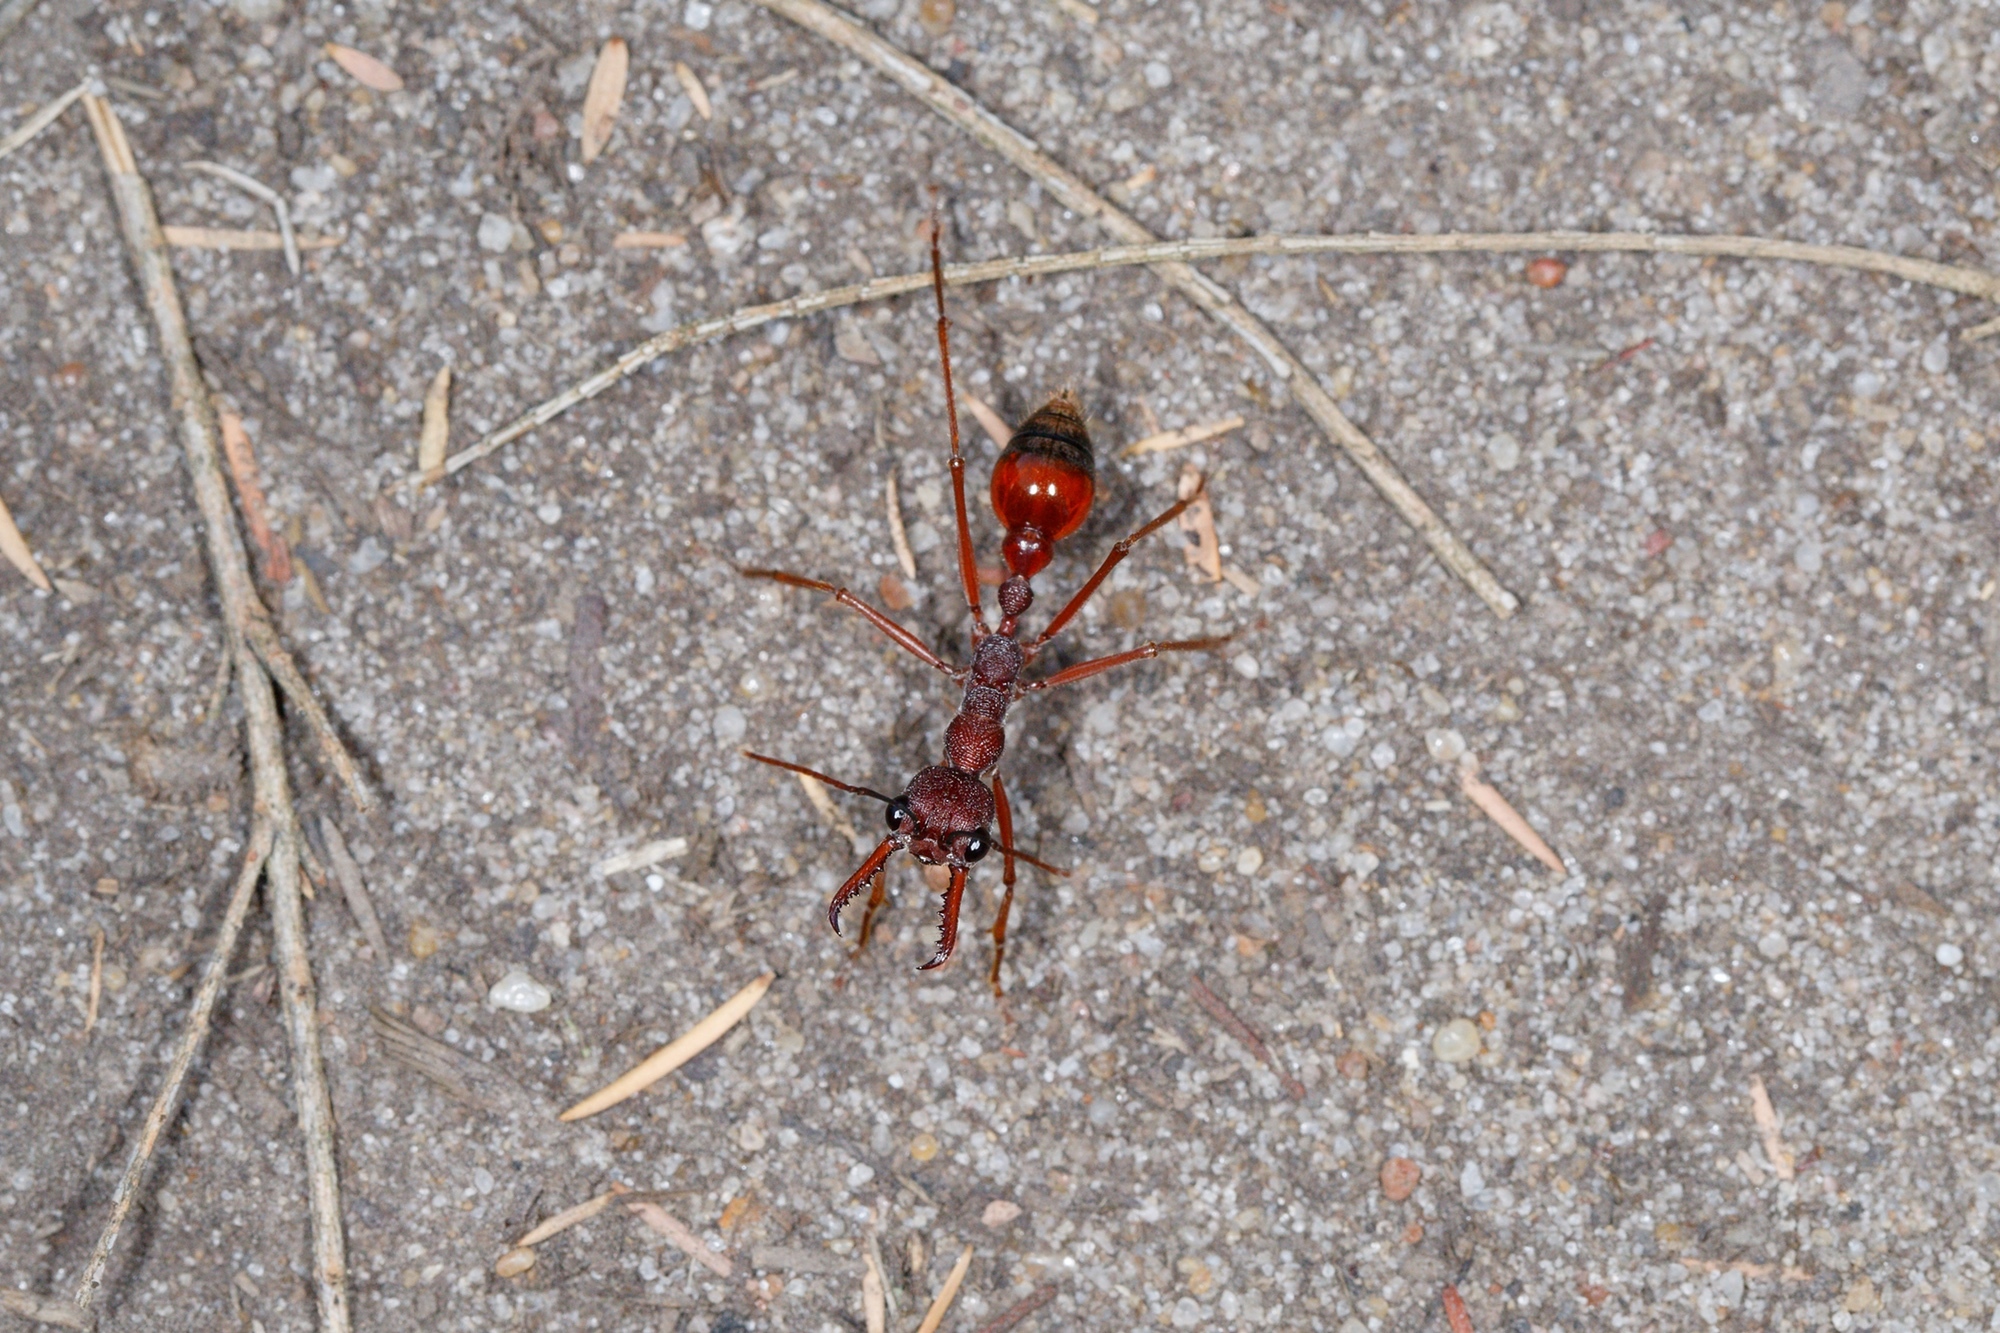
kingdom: Animalia
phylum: Arthropoda
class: Insecta
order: Hymenoptera
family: Formicidae
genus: Myrmecia
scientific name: Myrmecia nigriscapa
